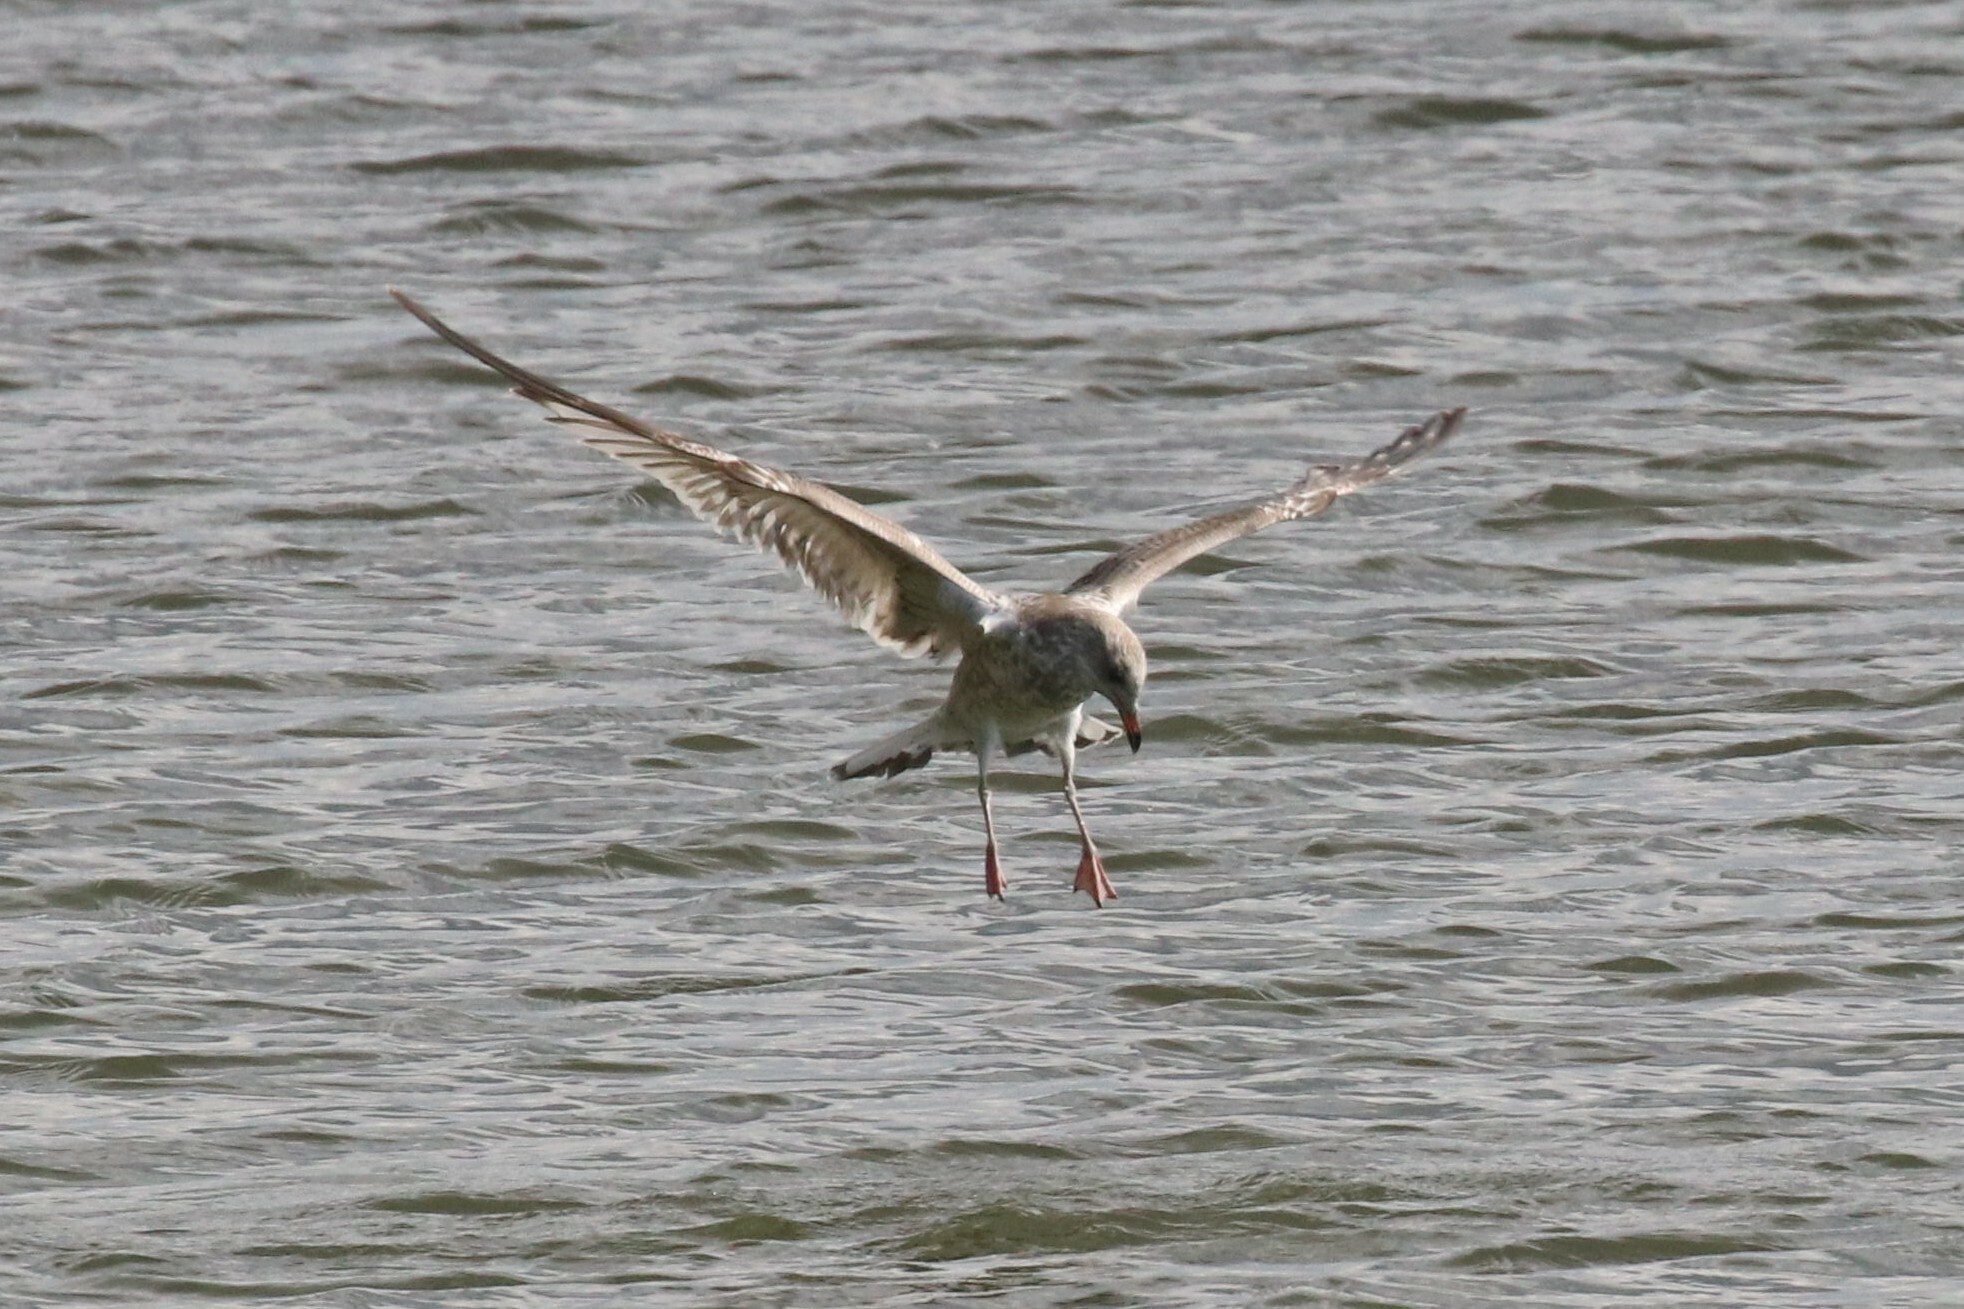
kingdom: Animalia
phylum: Chordata
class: Aves
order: Charadriiformes
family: Laridae
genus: Larus
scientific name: Larus canus
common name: Mew gull
